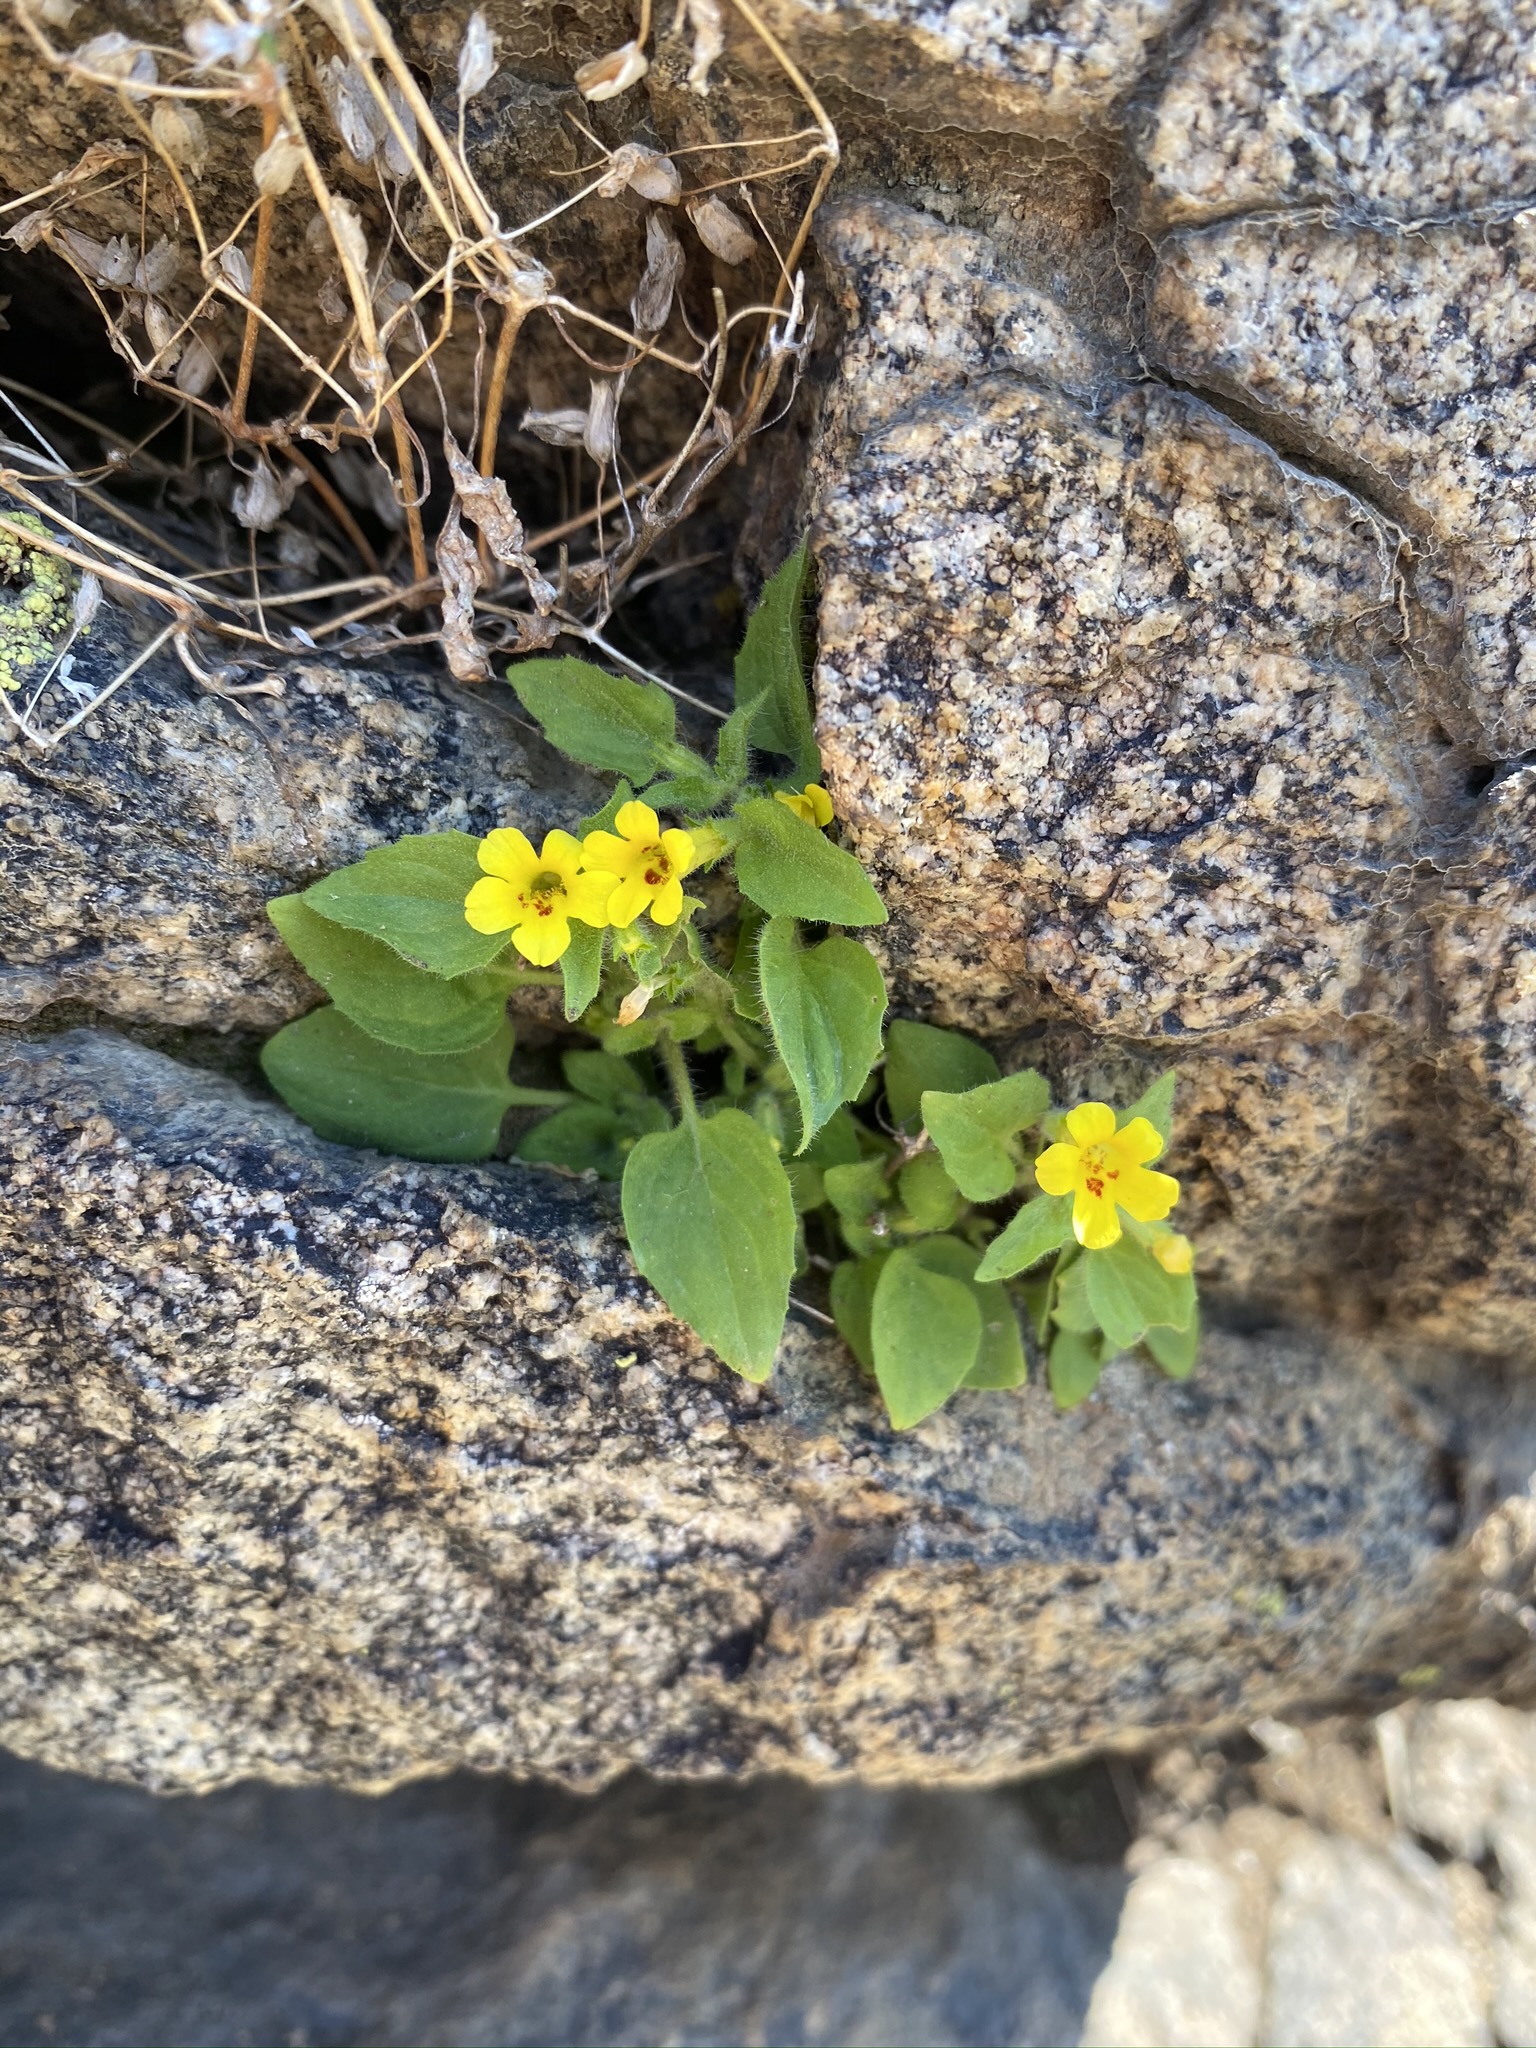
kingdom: Plantae
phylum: Tracheophyta
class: Magnoliopsida
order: Lamiales
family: Phrymaceae
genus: Erythranthe
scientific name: Erythranthe geniculata
